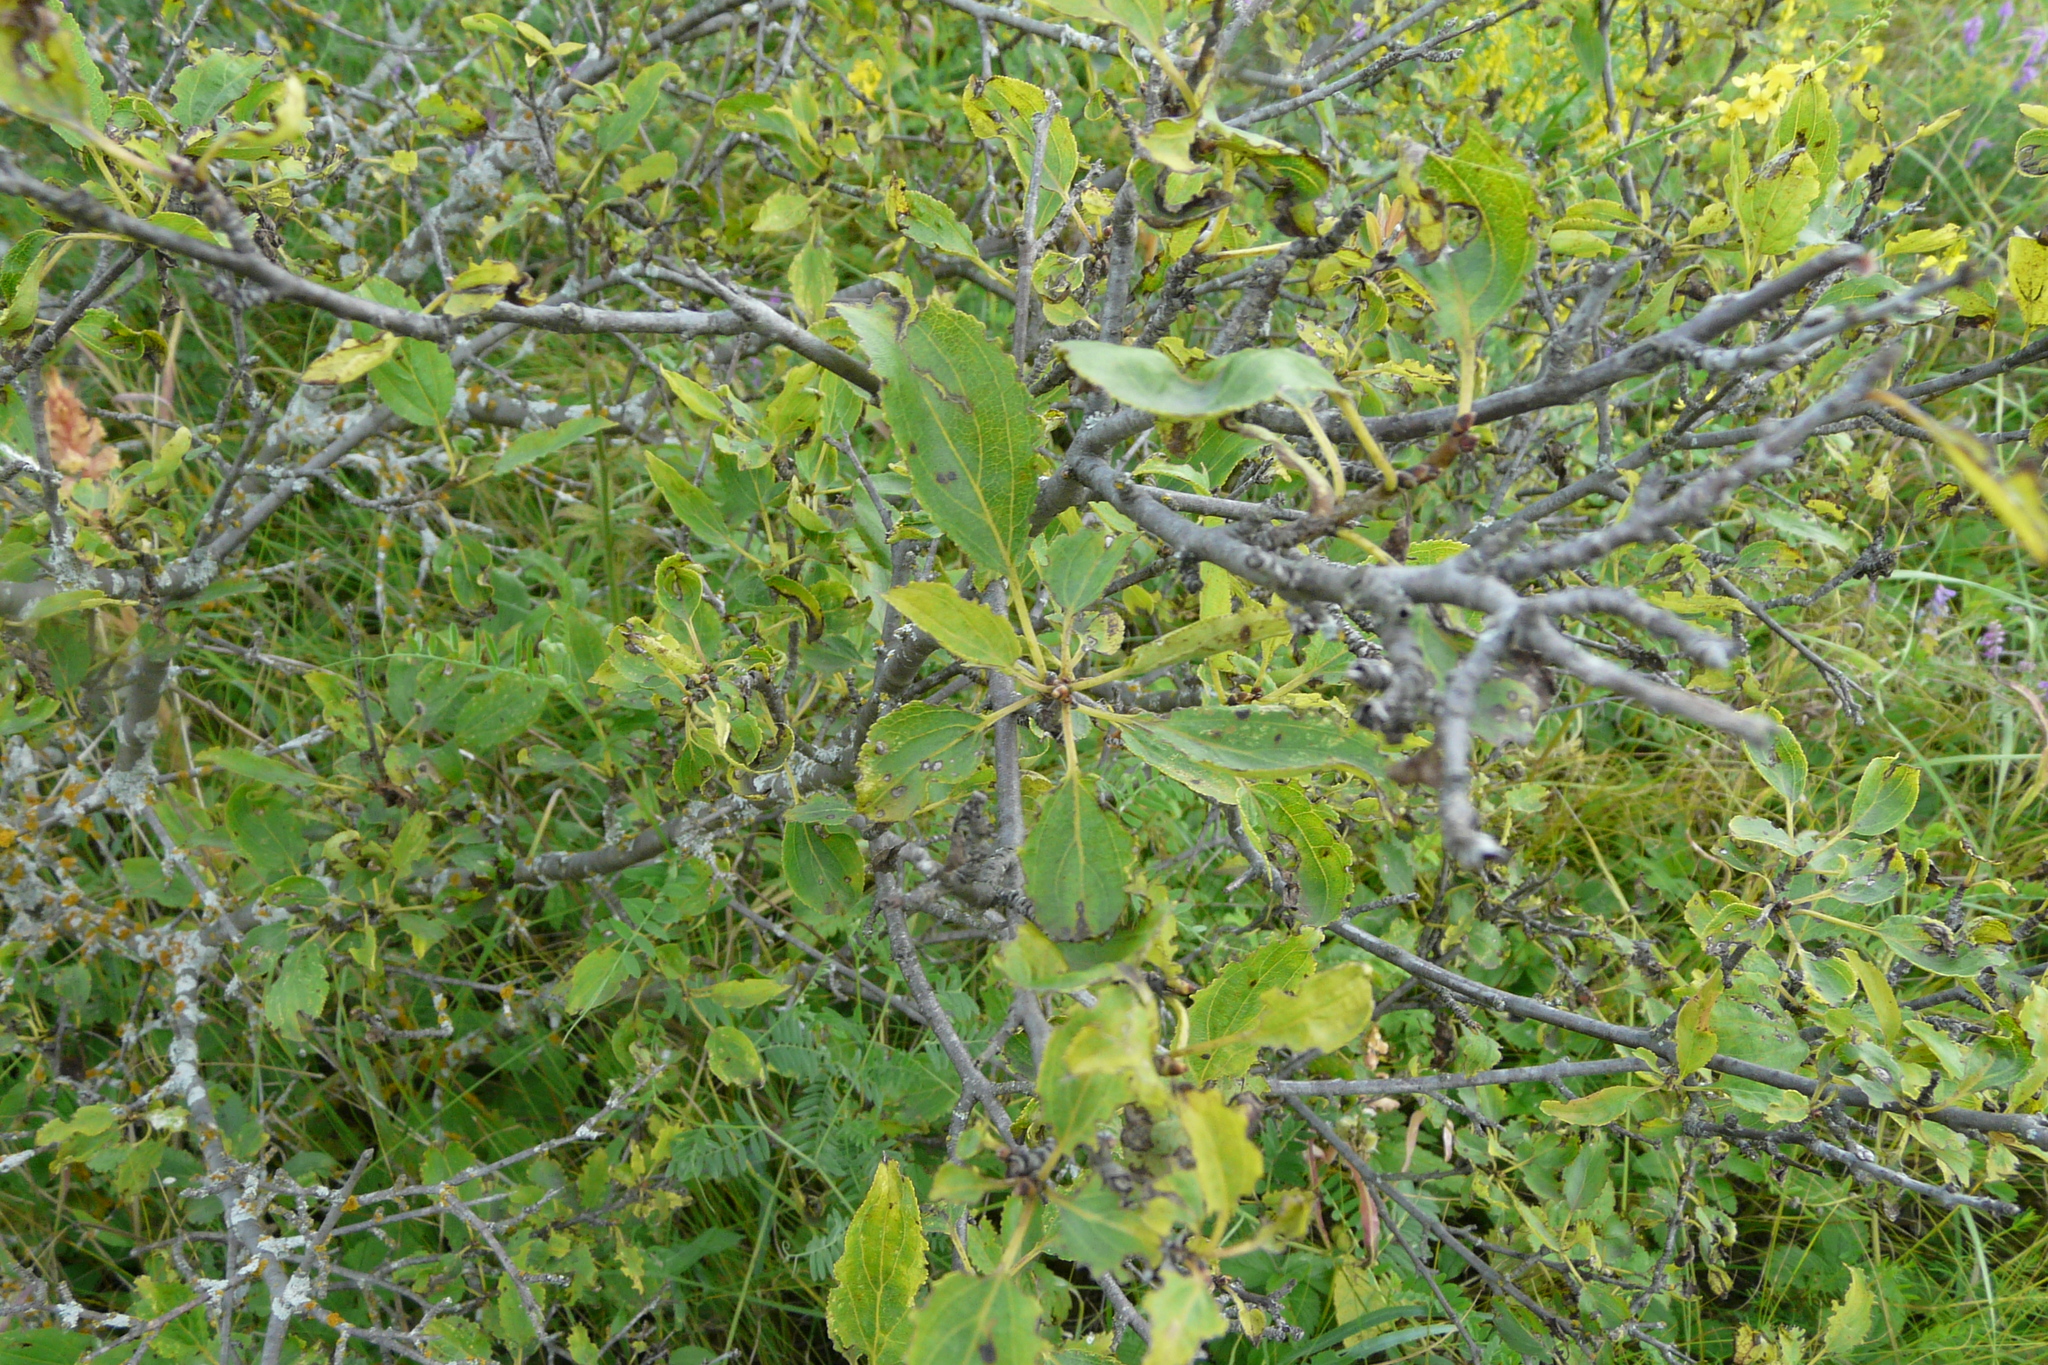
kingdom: Plantae
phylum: Tracheophyta
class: Magnoliopsida
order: Rosales
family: Rhamnaceae
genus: Rhamnus
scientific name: Rhamnus cathartica
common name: Common buckthorn
